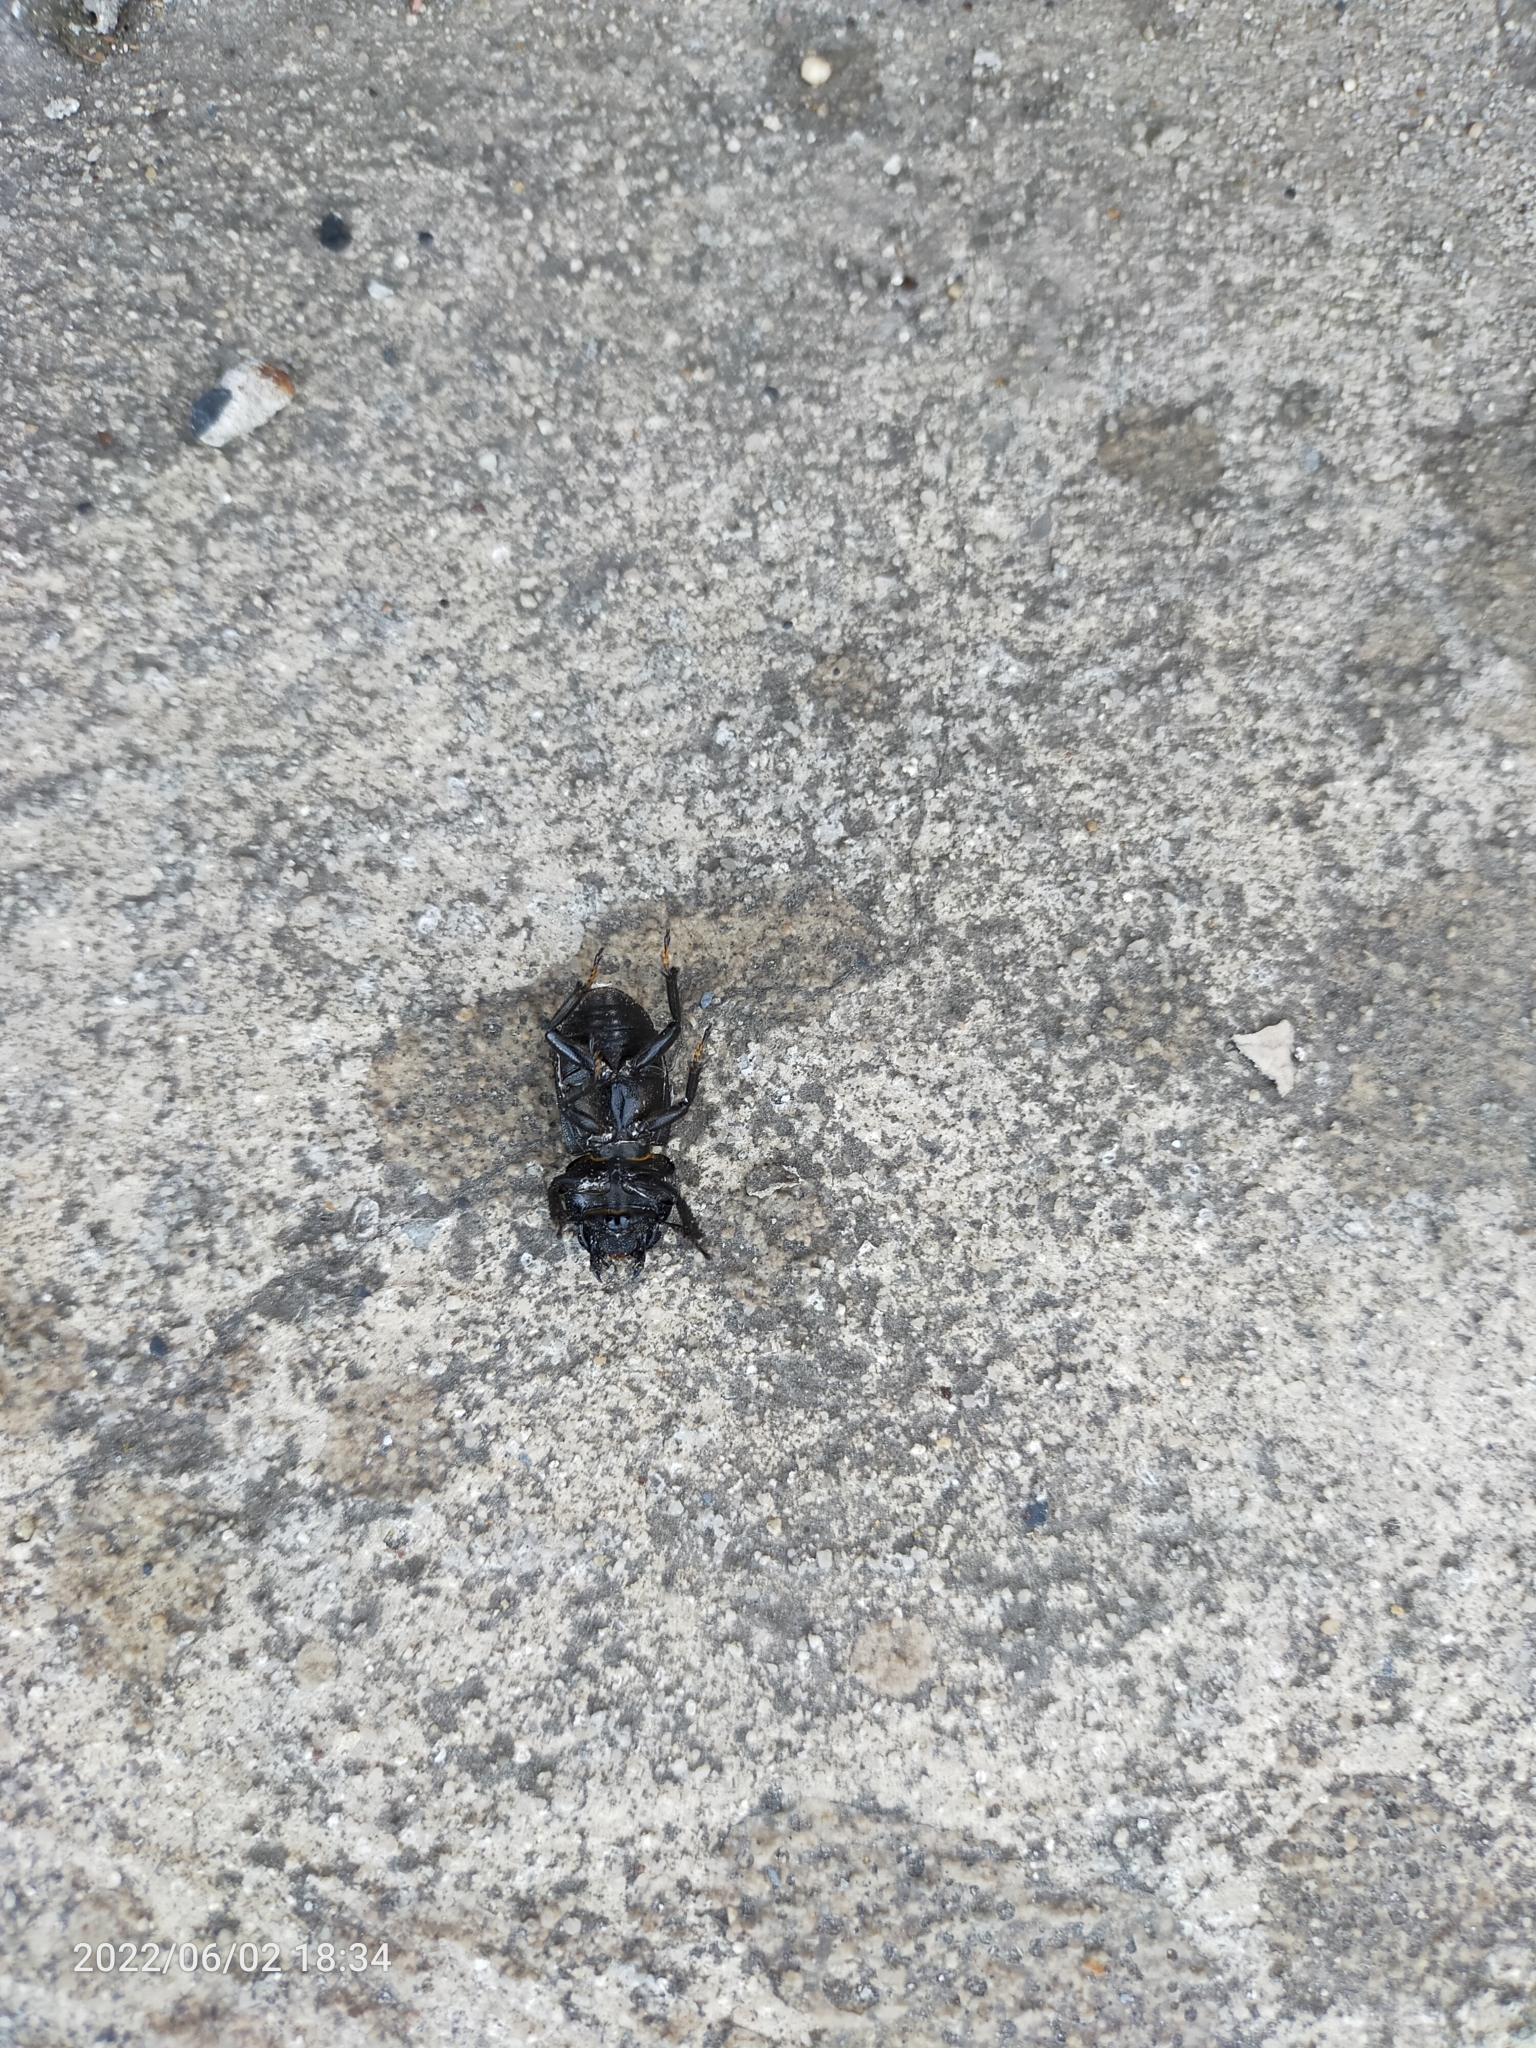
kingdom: Animalia
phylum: Arthropoda
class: Insecta
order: Coleoptera
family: Lucanidae
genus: Dorcus
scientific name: Dorcus parallelipipedus
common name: Lesser stag beetle
